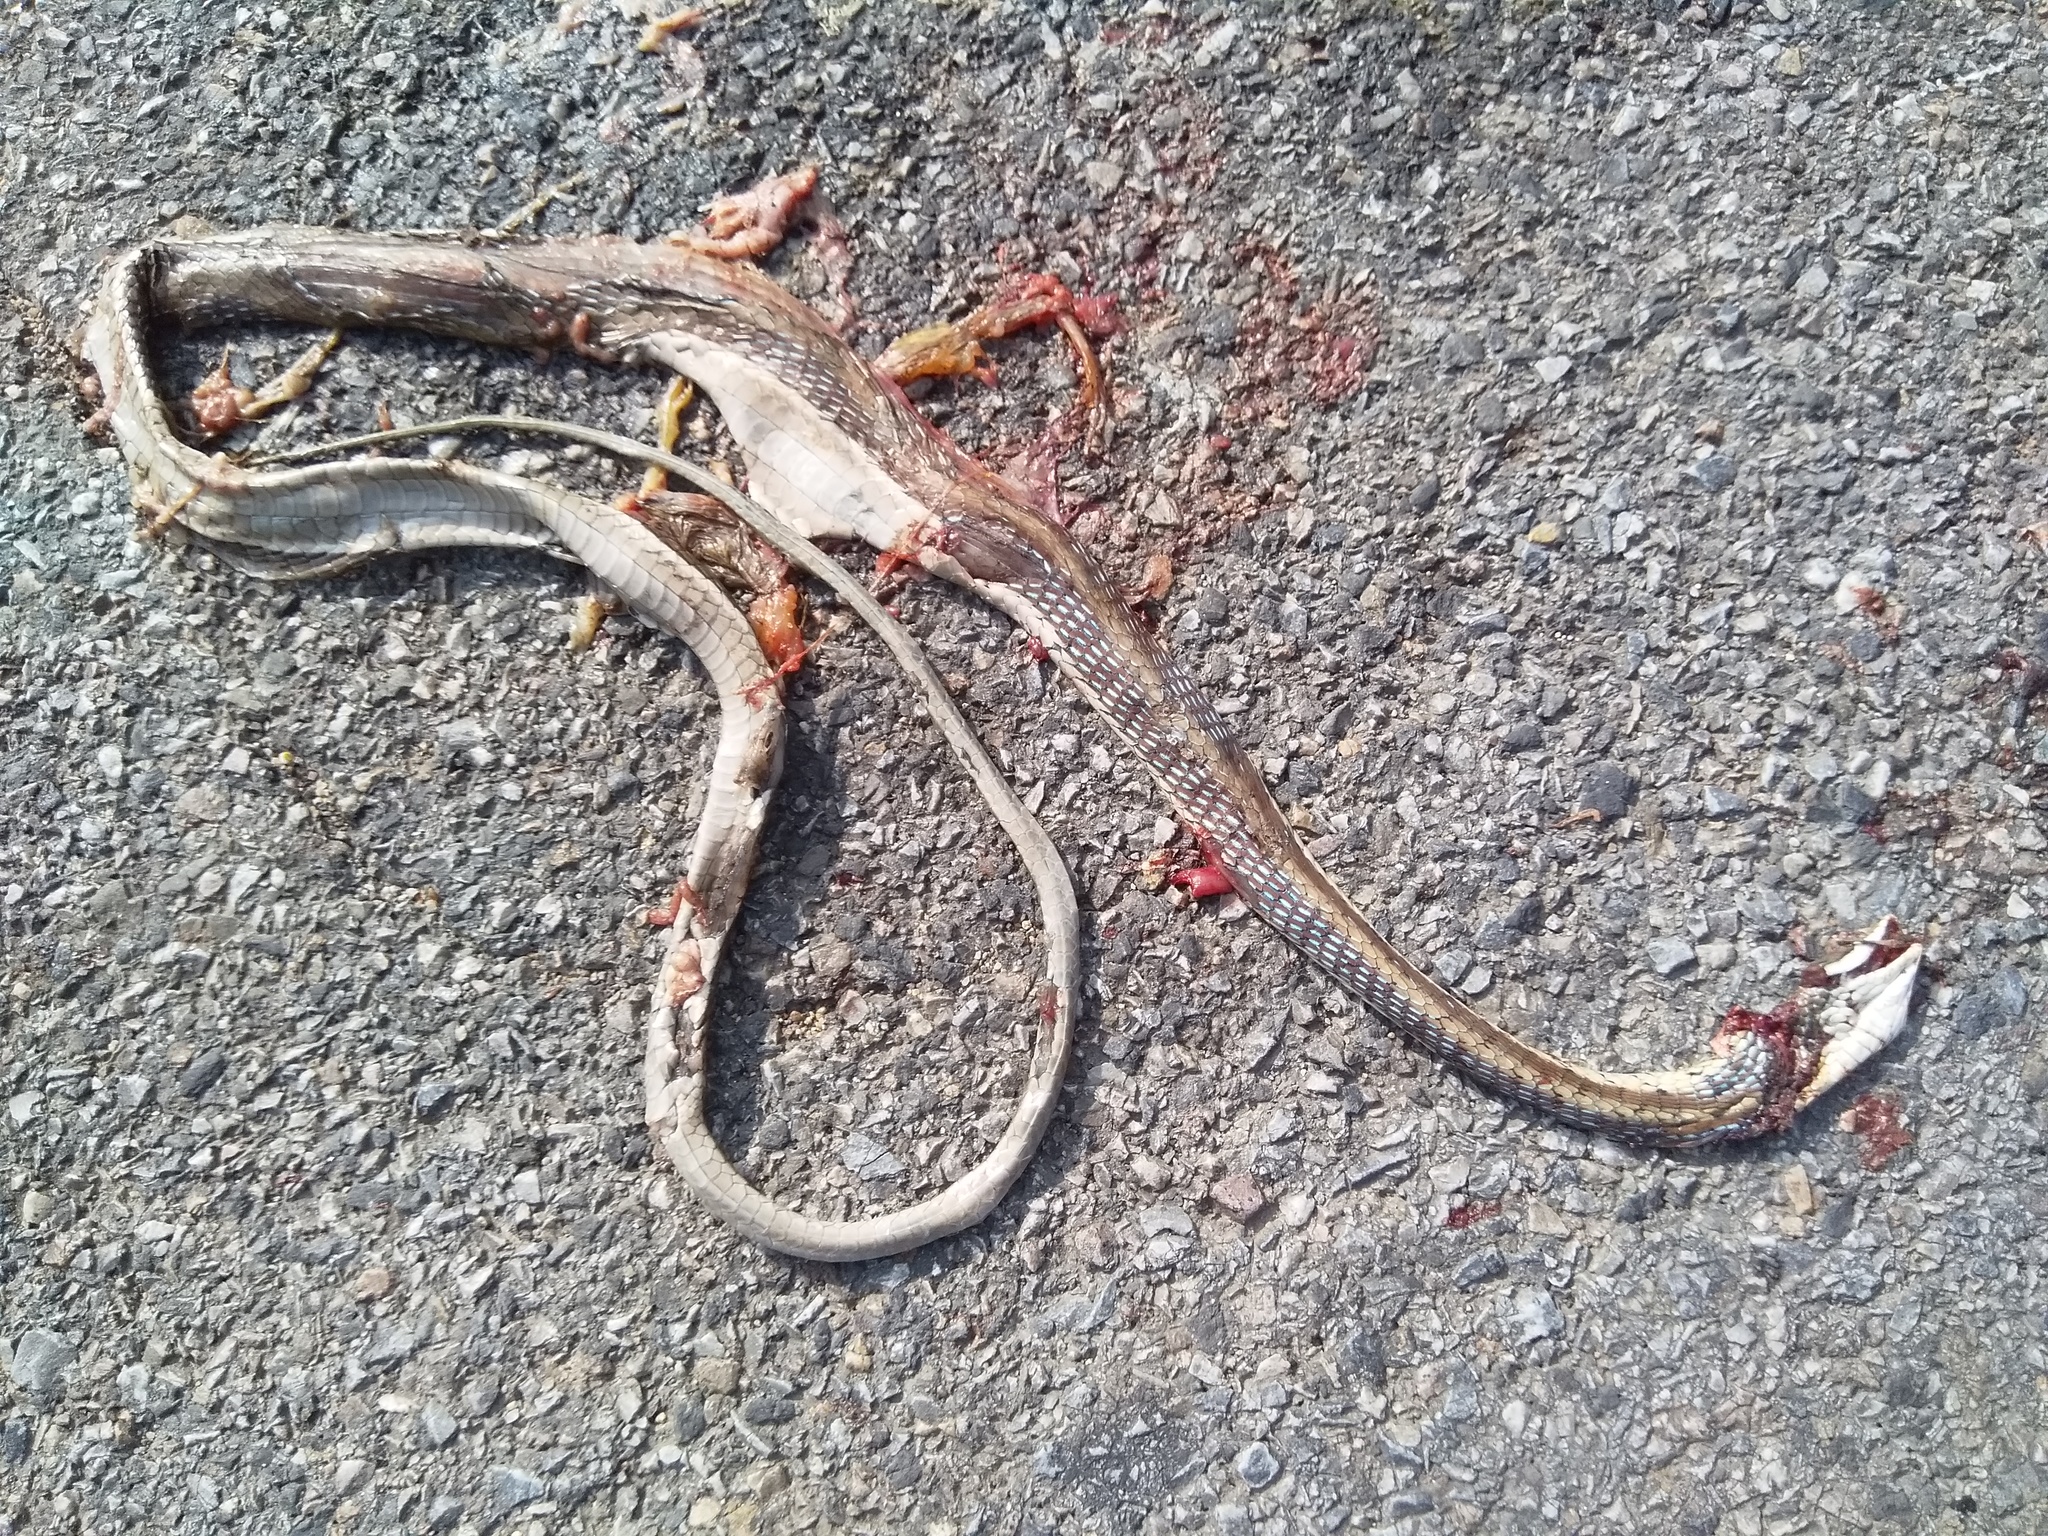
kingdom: Animalia
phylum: Chordata
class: Squamata
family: Colubridae
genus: Dendrelaphis
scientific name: Dendrelaphis tristis
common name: Daudin's bronzeback
